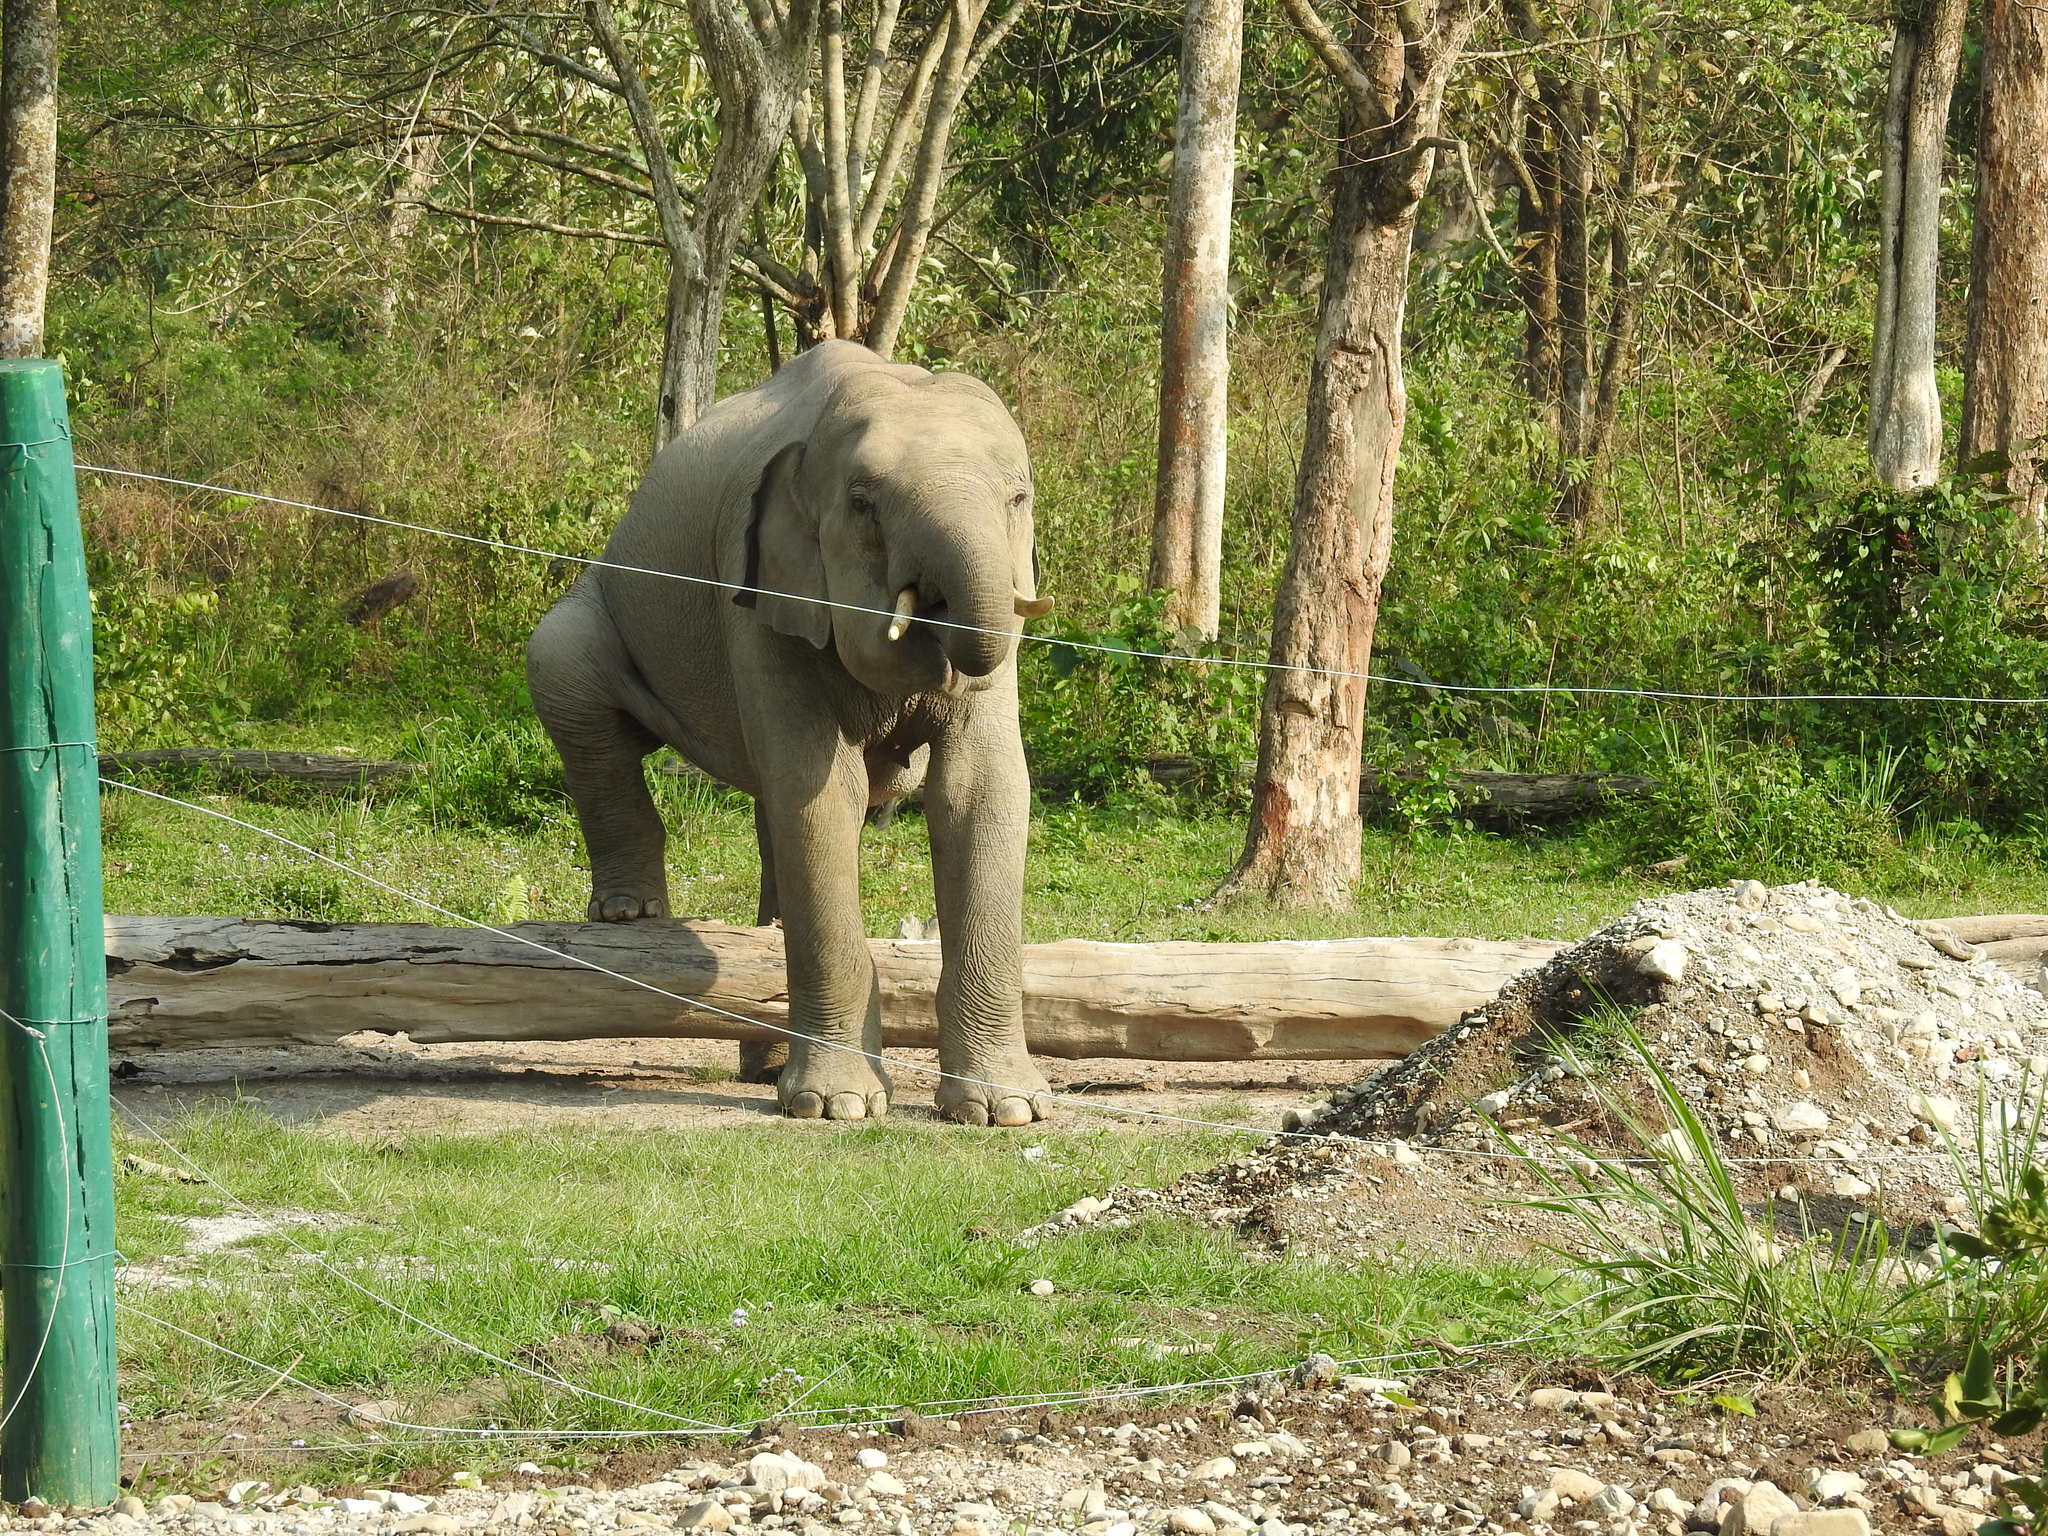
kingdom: Animalia
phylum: Chordata
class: Mammalia
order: Proboscidea
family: Elephantidae
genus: Elephas
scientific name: Elephas maximus
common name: Asian elephant
